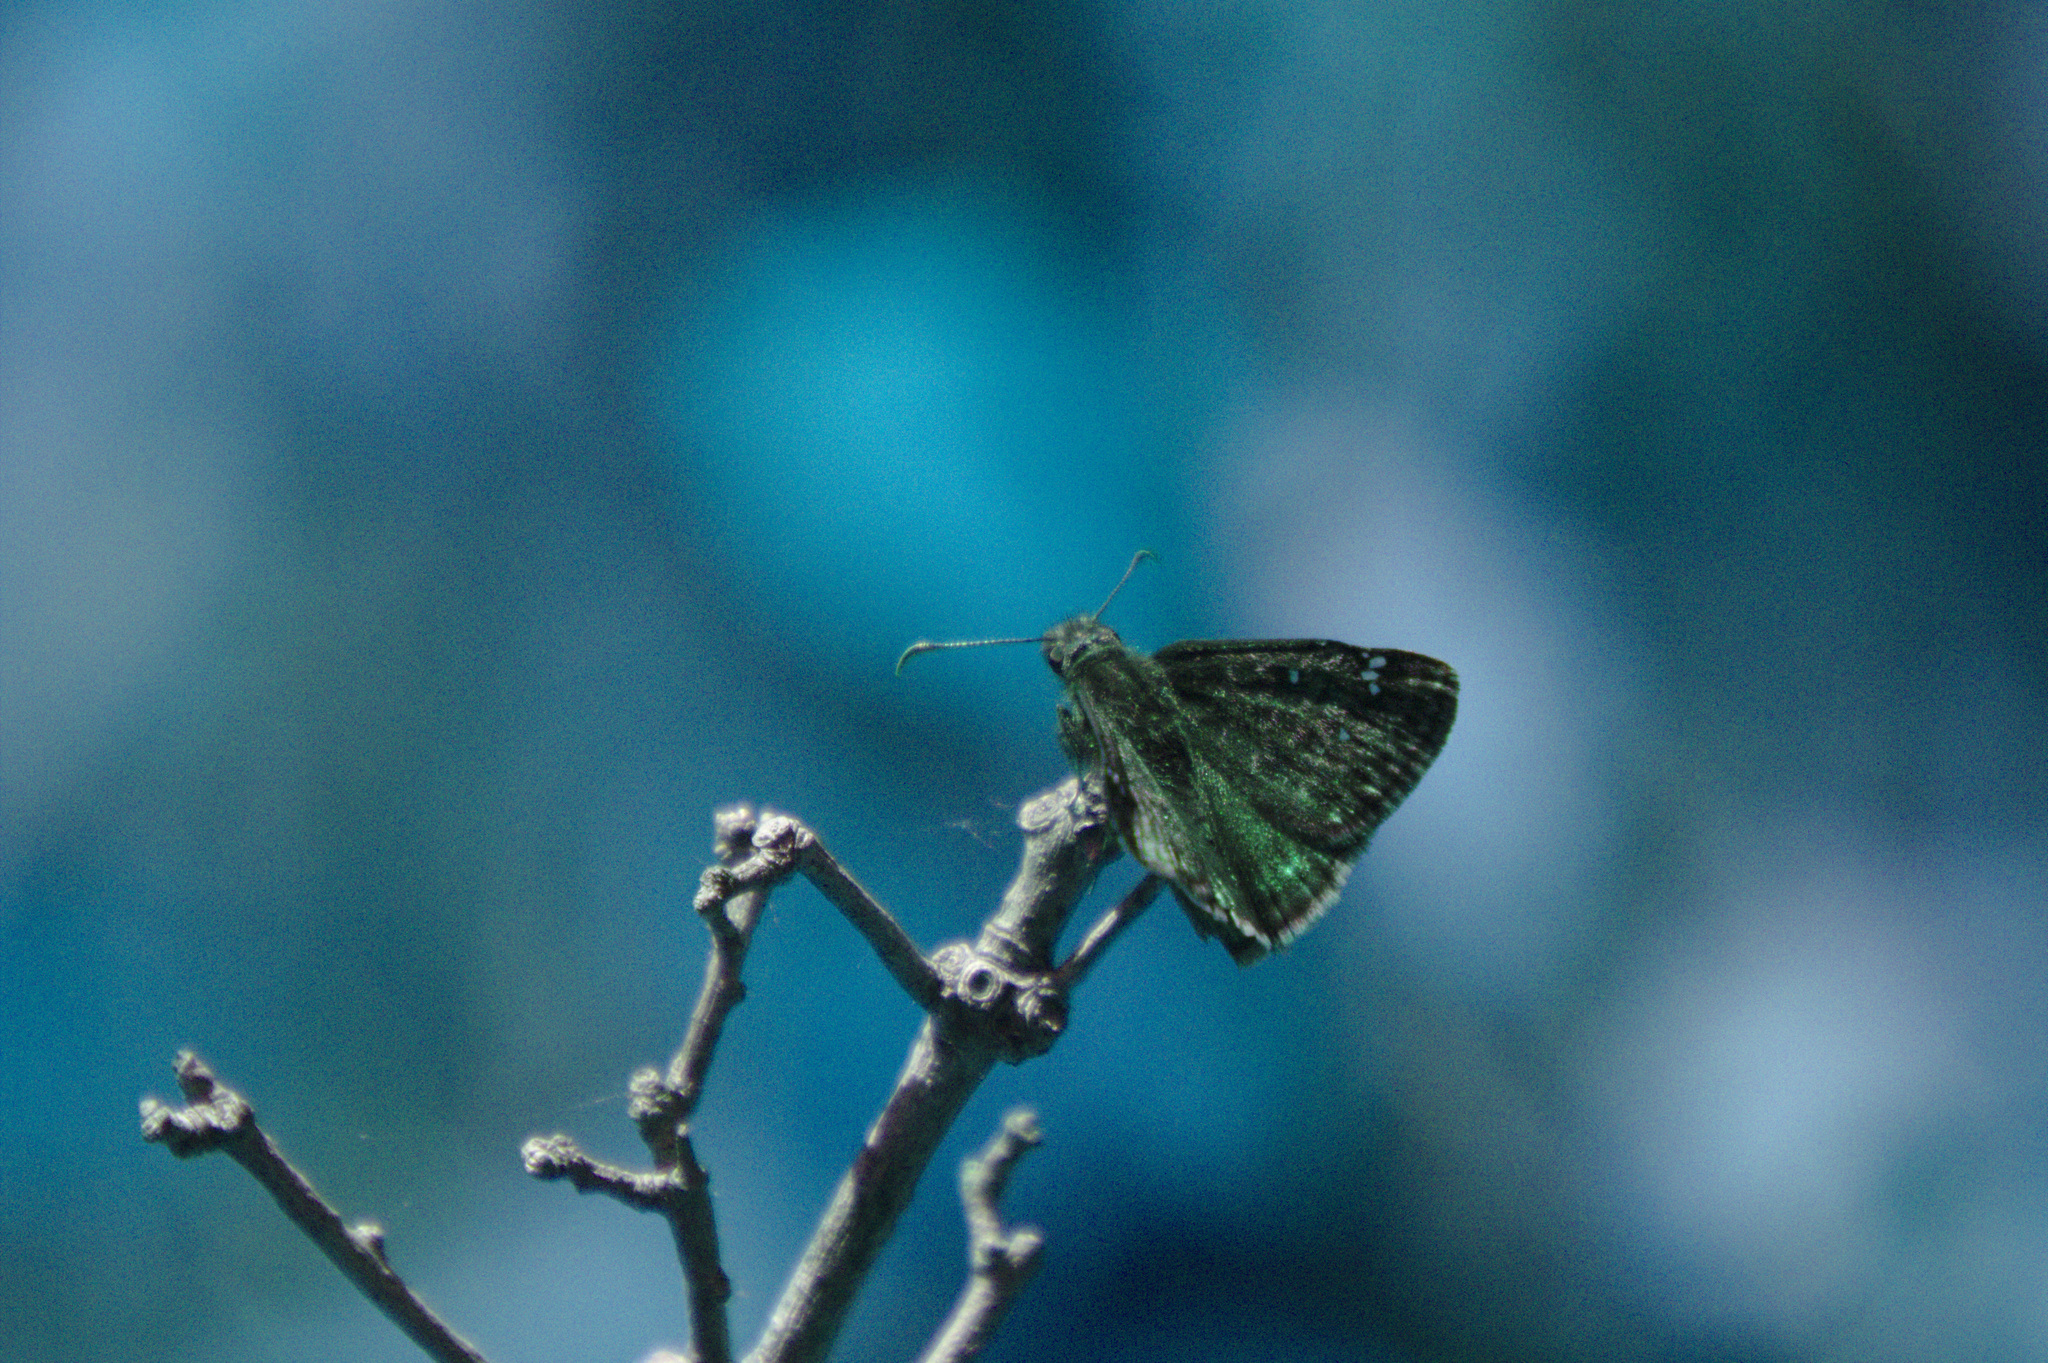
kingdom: Animalia
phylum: Arthropoda
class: Insecta
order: Lepidoptera
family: Hesperiidae
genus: Erynnis
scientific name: Erynnis juvenalis
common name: Juvenal's duskywing
